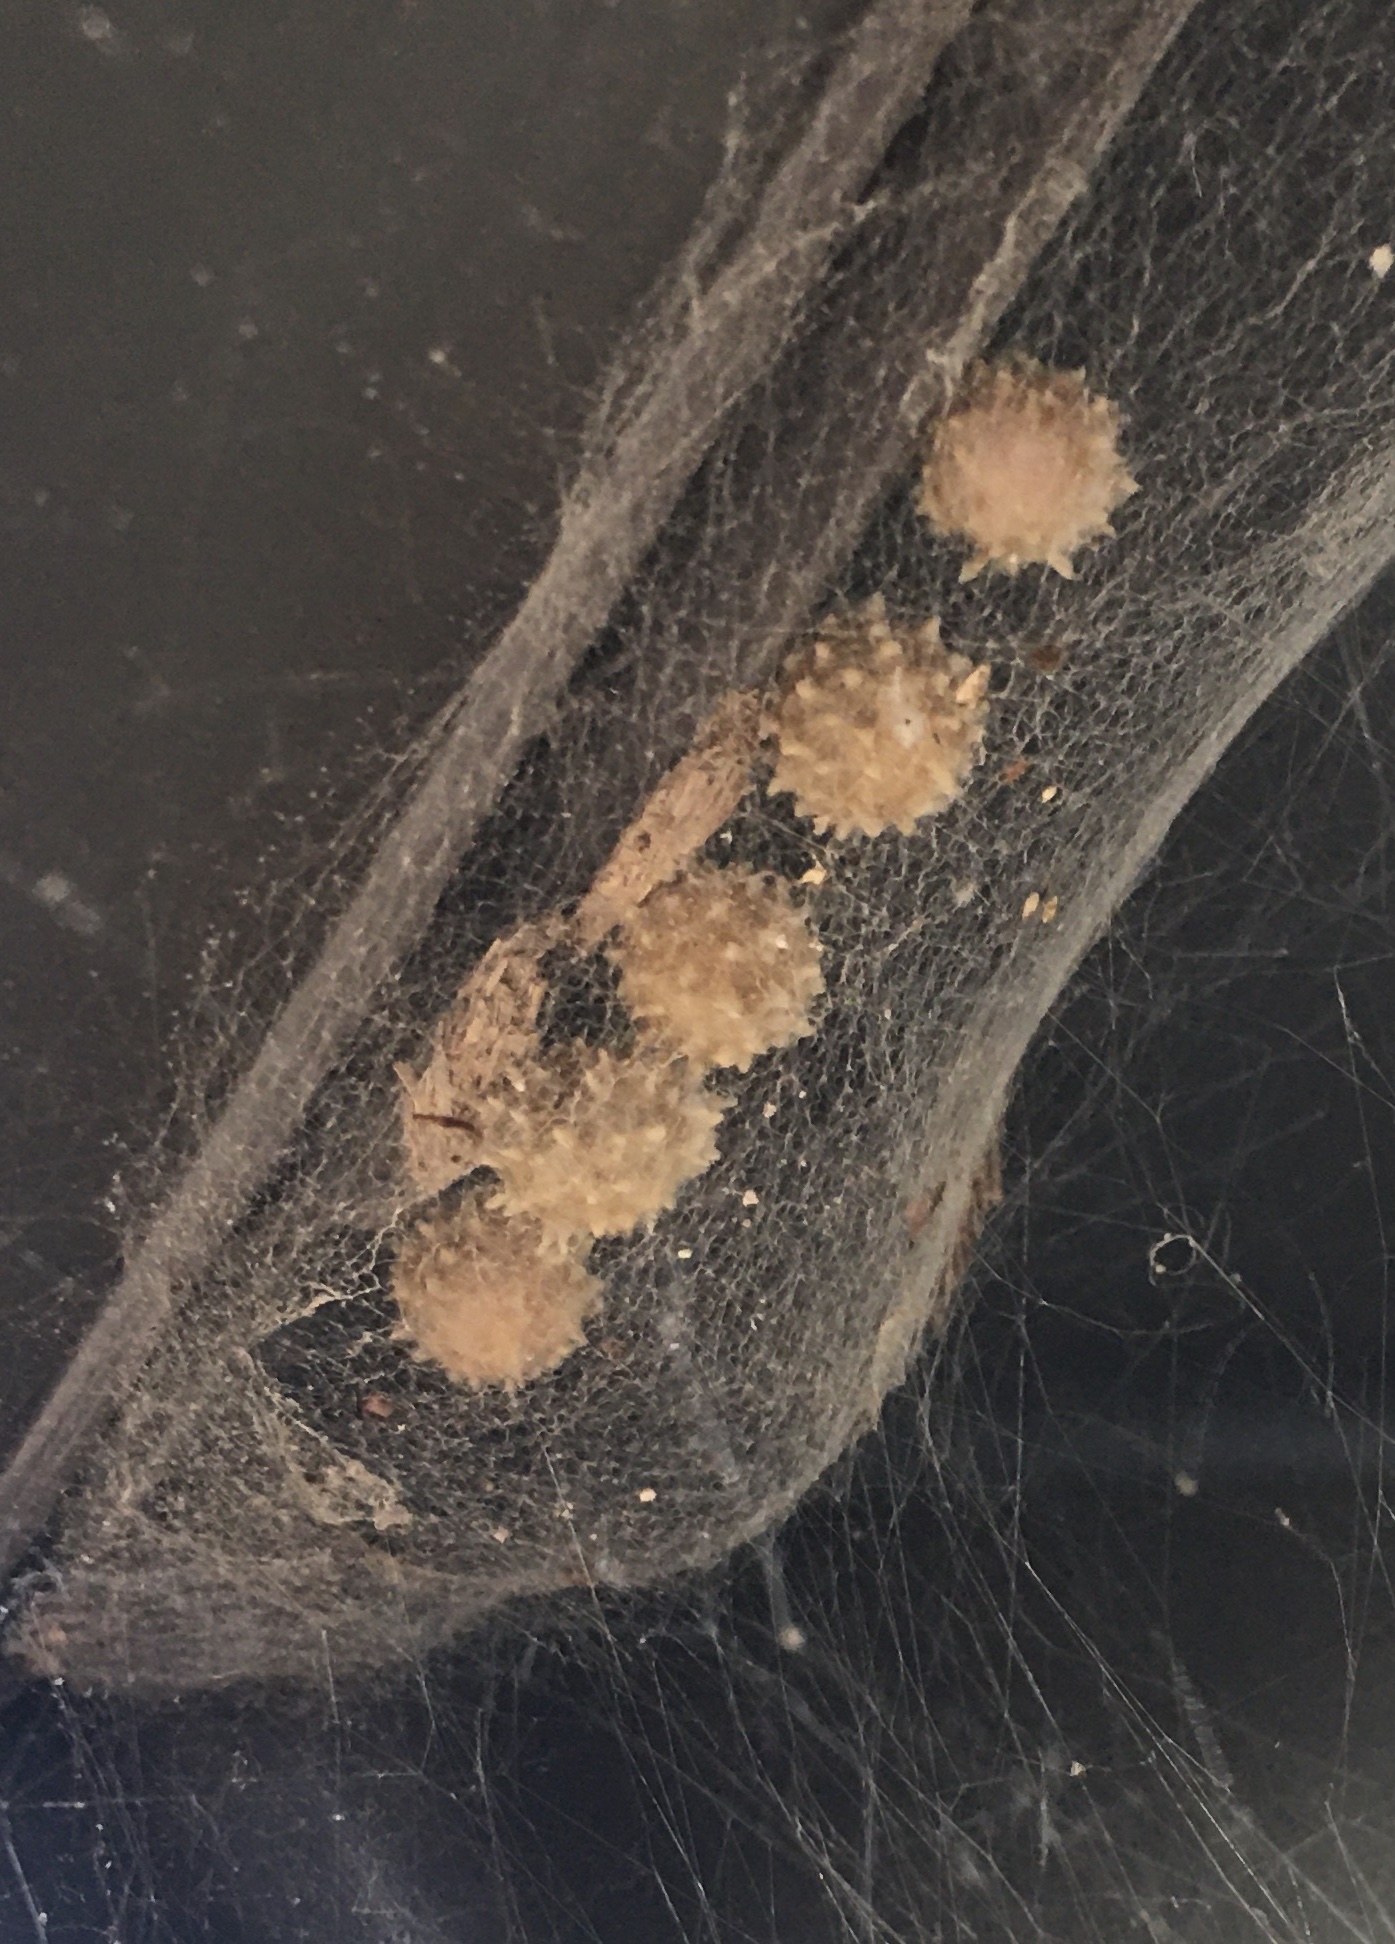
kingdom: Animalia
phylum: Arthropoda
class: Arachnida
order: Araneae
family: Theridiidae
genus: Latrodectus
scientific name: Latrodectus geometricus
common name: Brown widow spider
